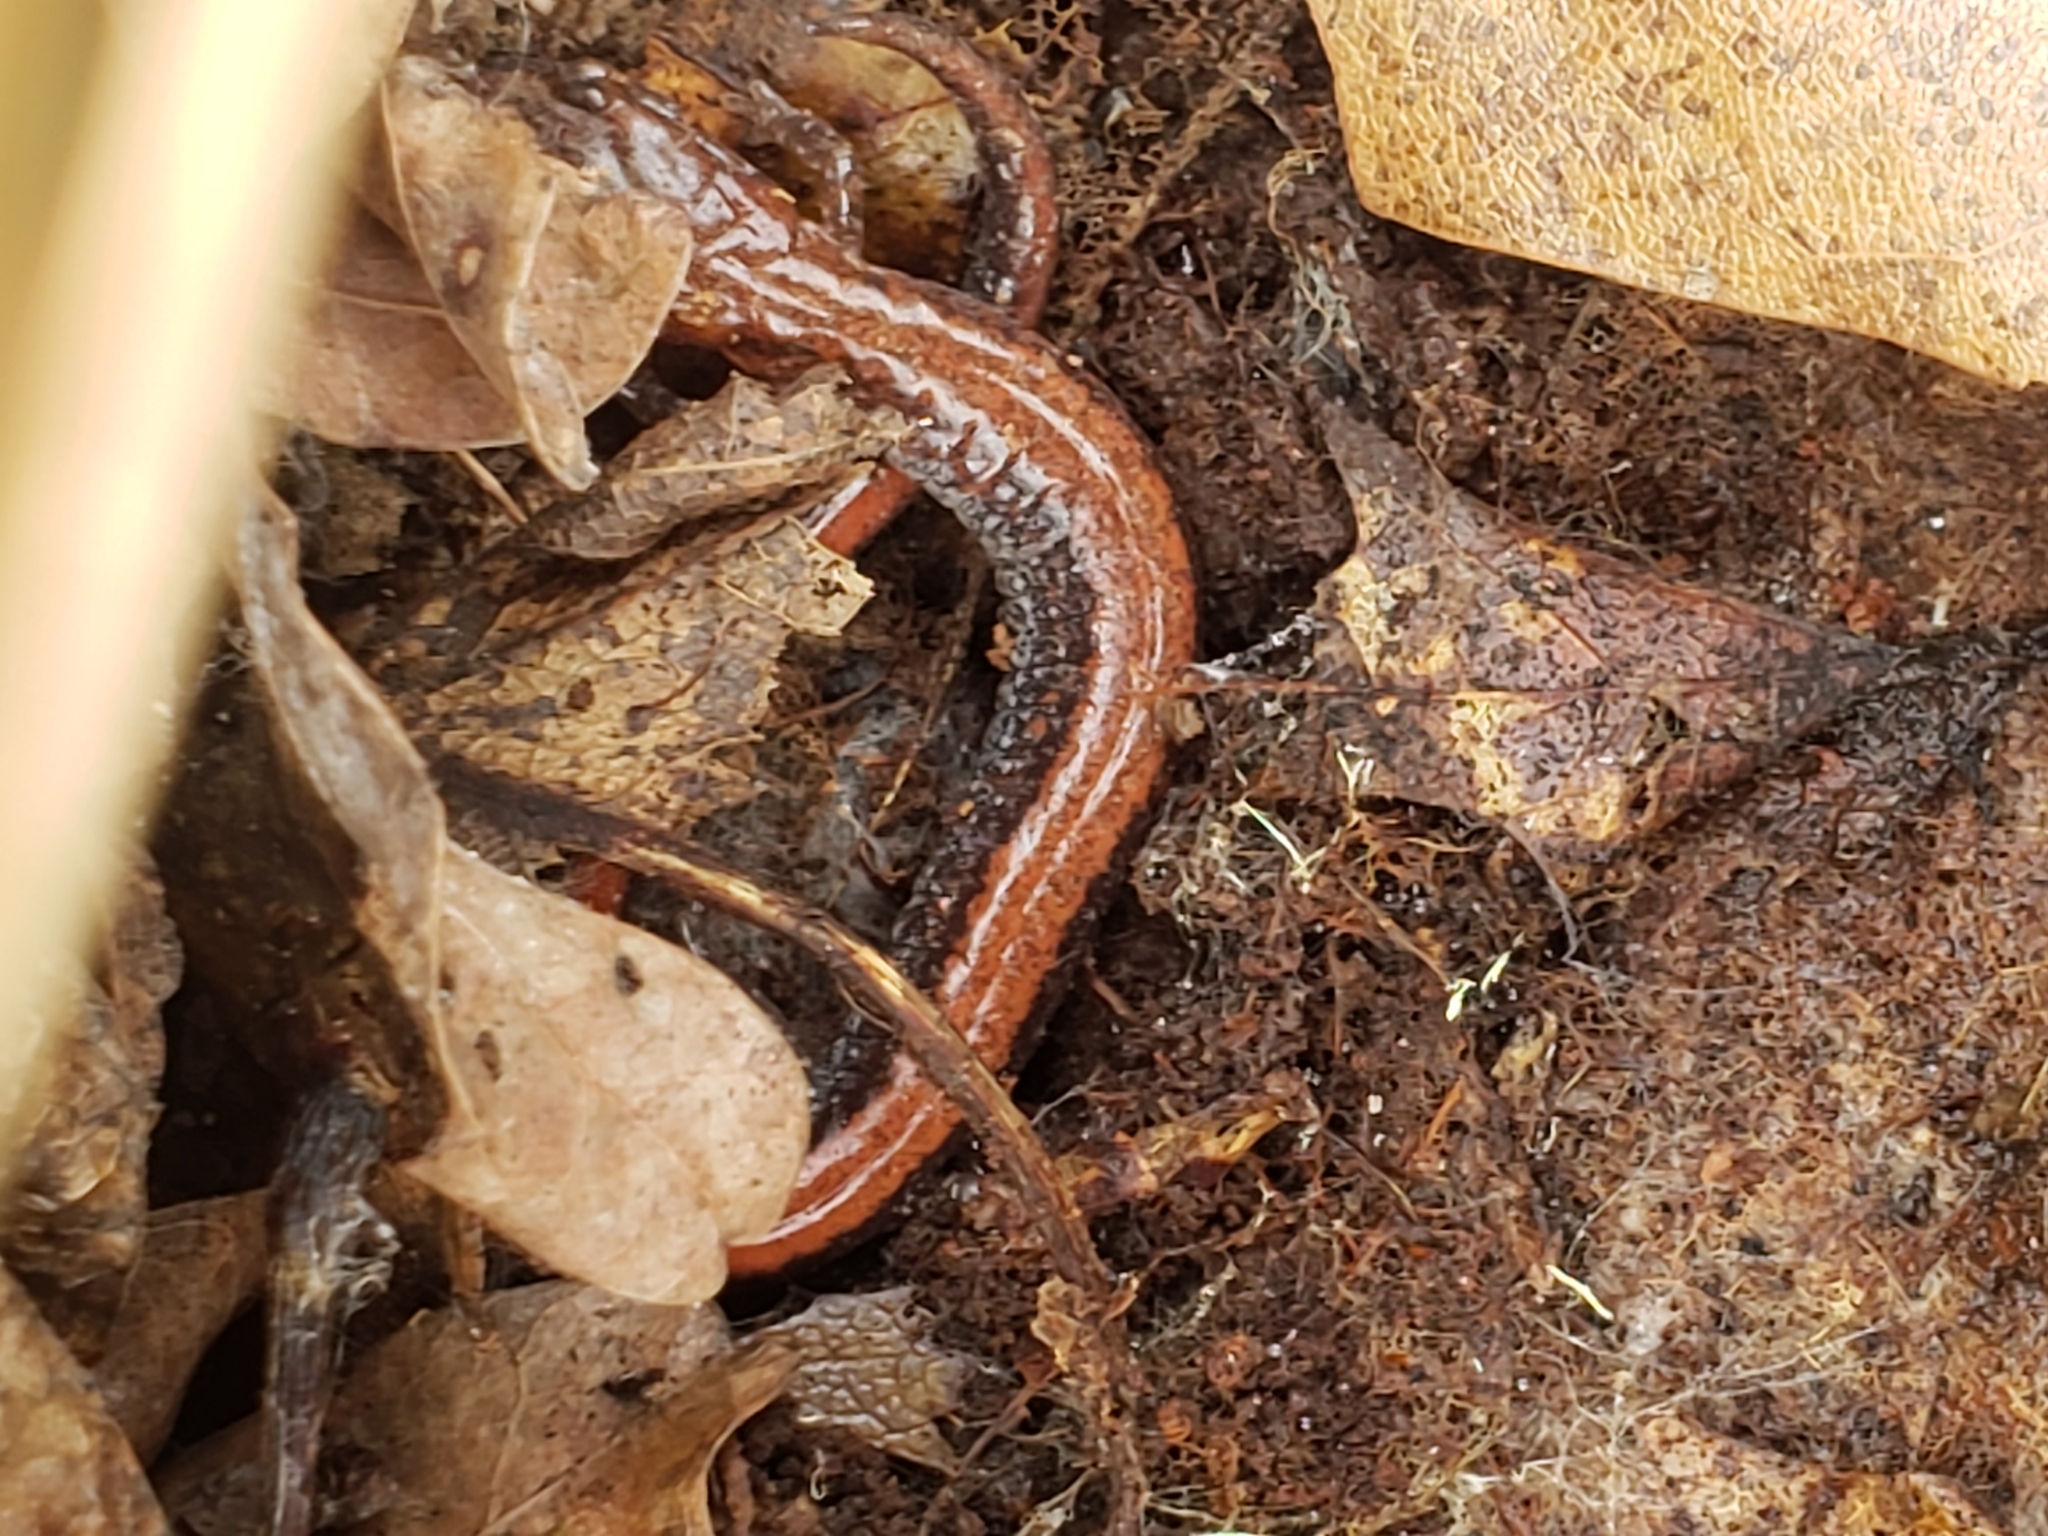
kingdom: Animalia
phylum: Chordata
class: Amphibia
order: Caudata
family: Plethodontidae
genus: Plethodon
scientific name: Plethodon cinereus
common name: Redback salamander
